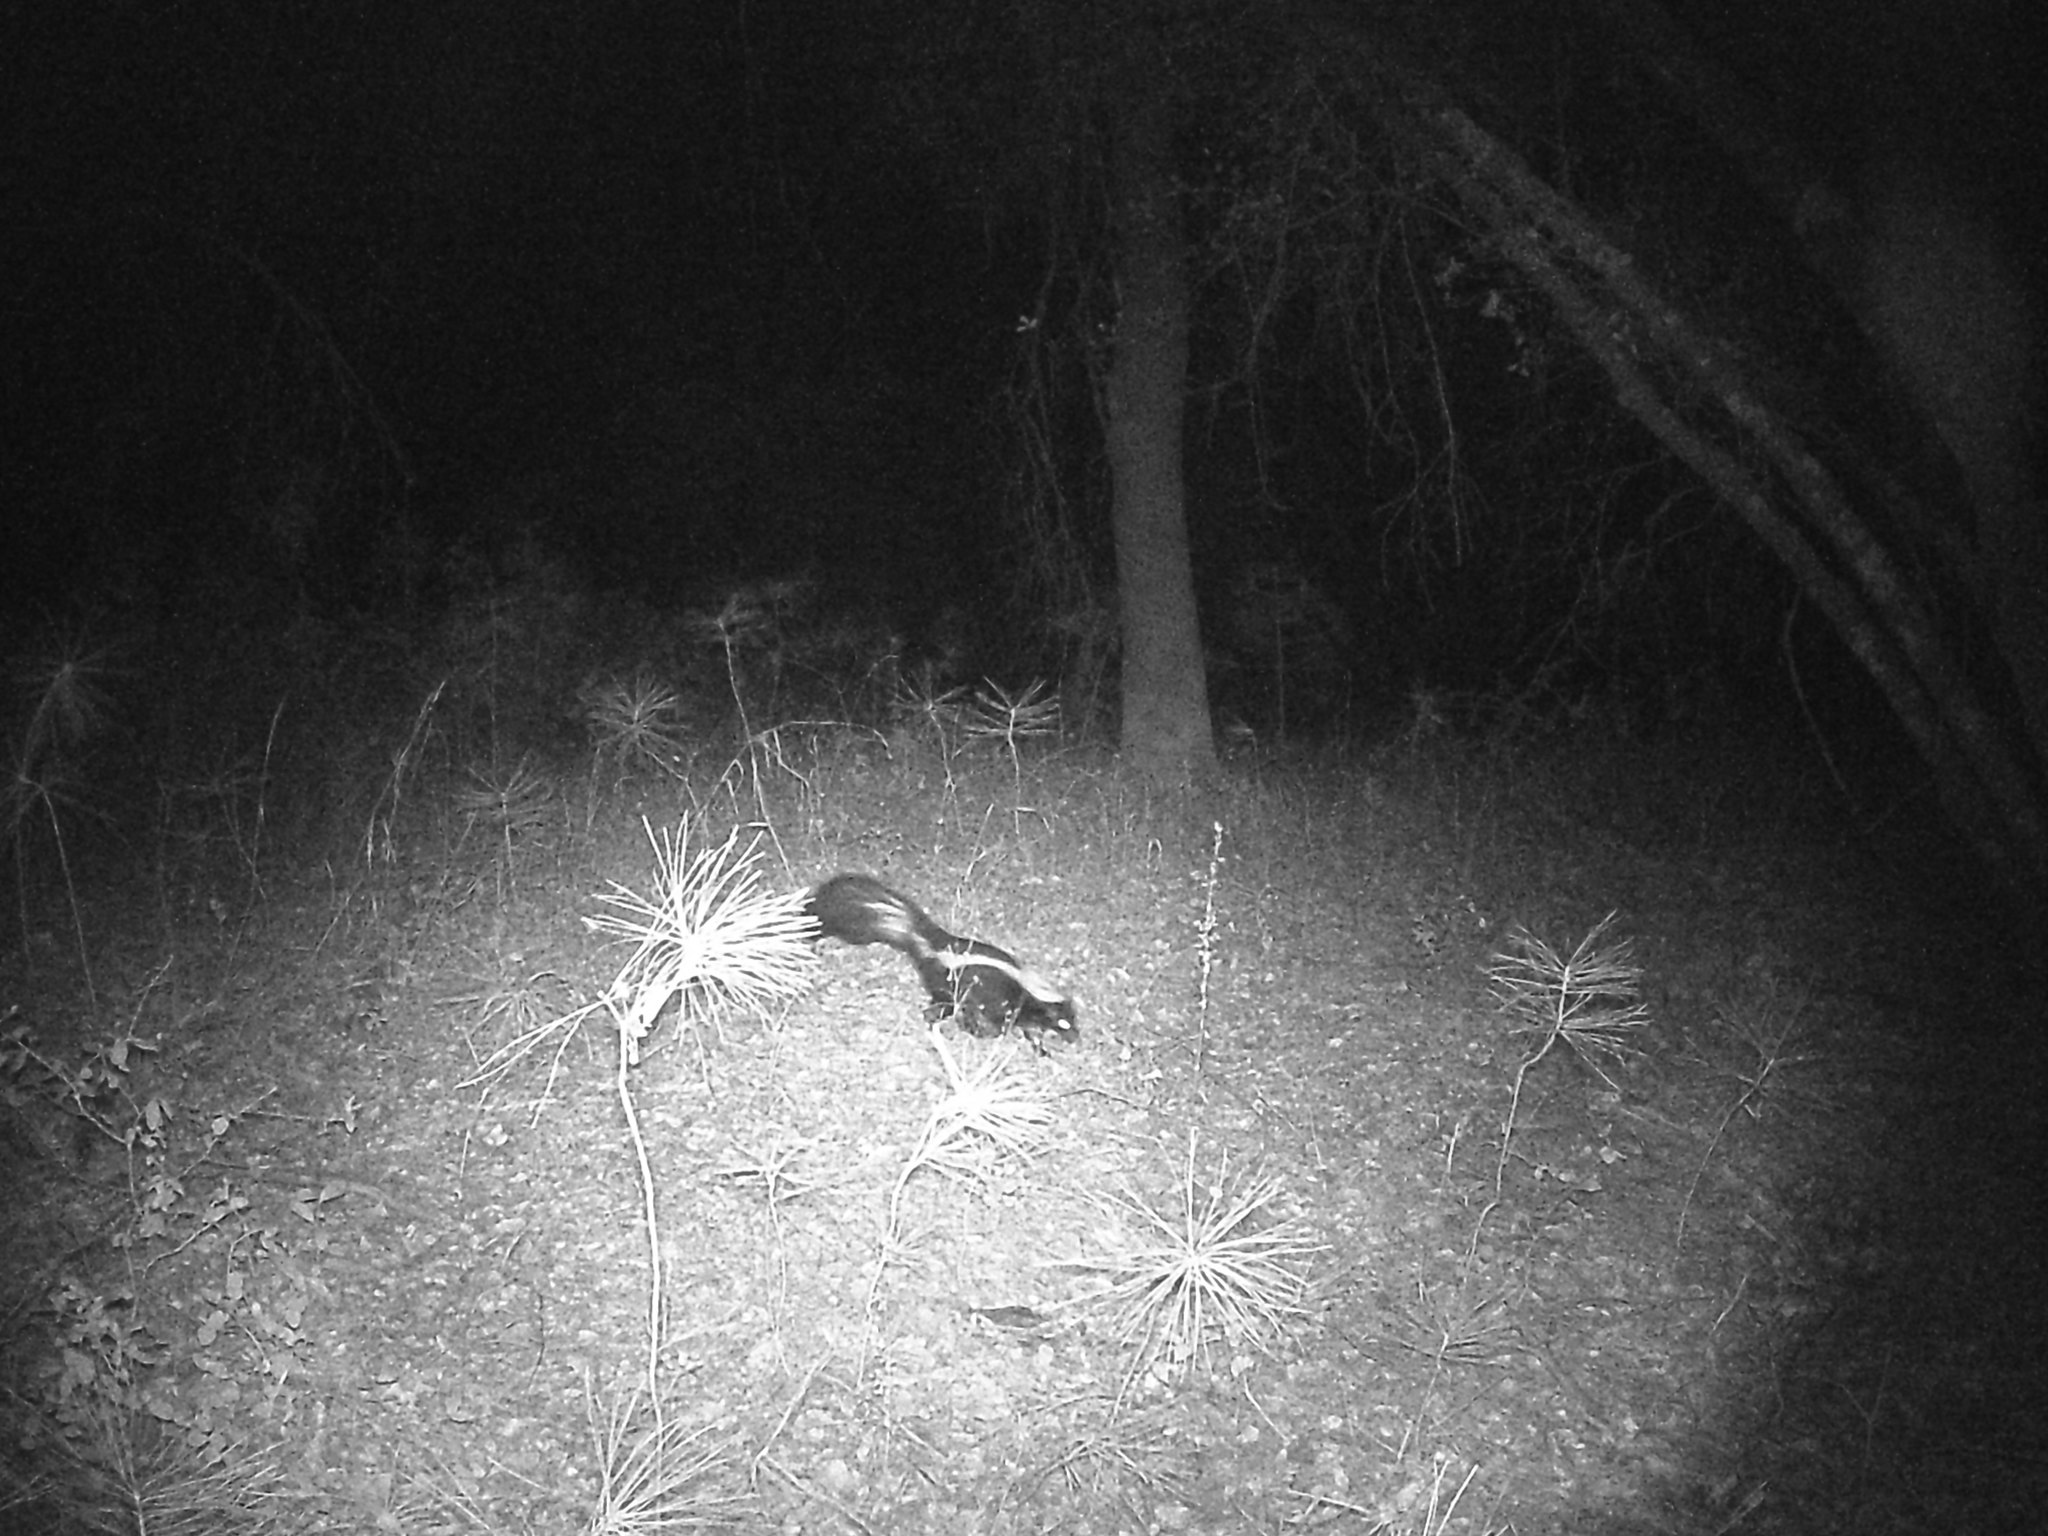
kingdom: Animalia
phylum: Chordata
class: Mammalia
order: Carnivora
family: Mephitidae
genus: Mephitis
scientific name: Mephitis mephitis
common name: Striped skunk
